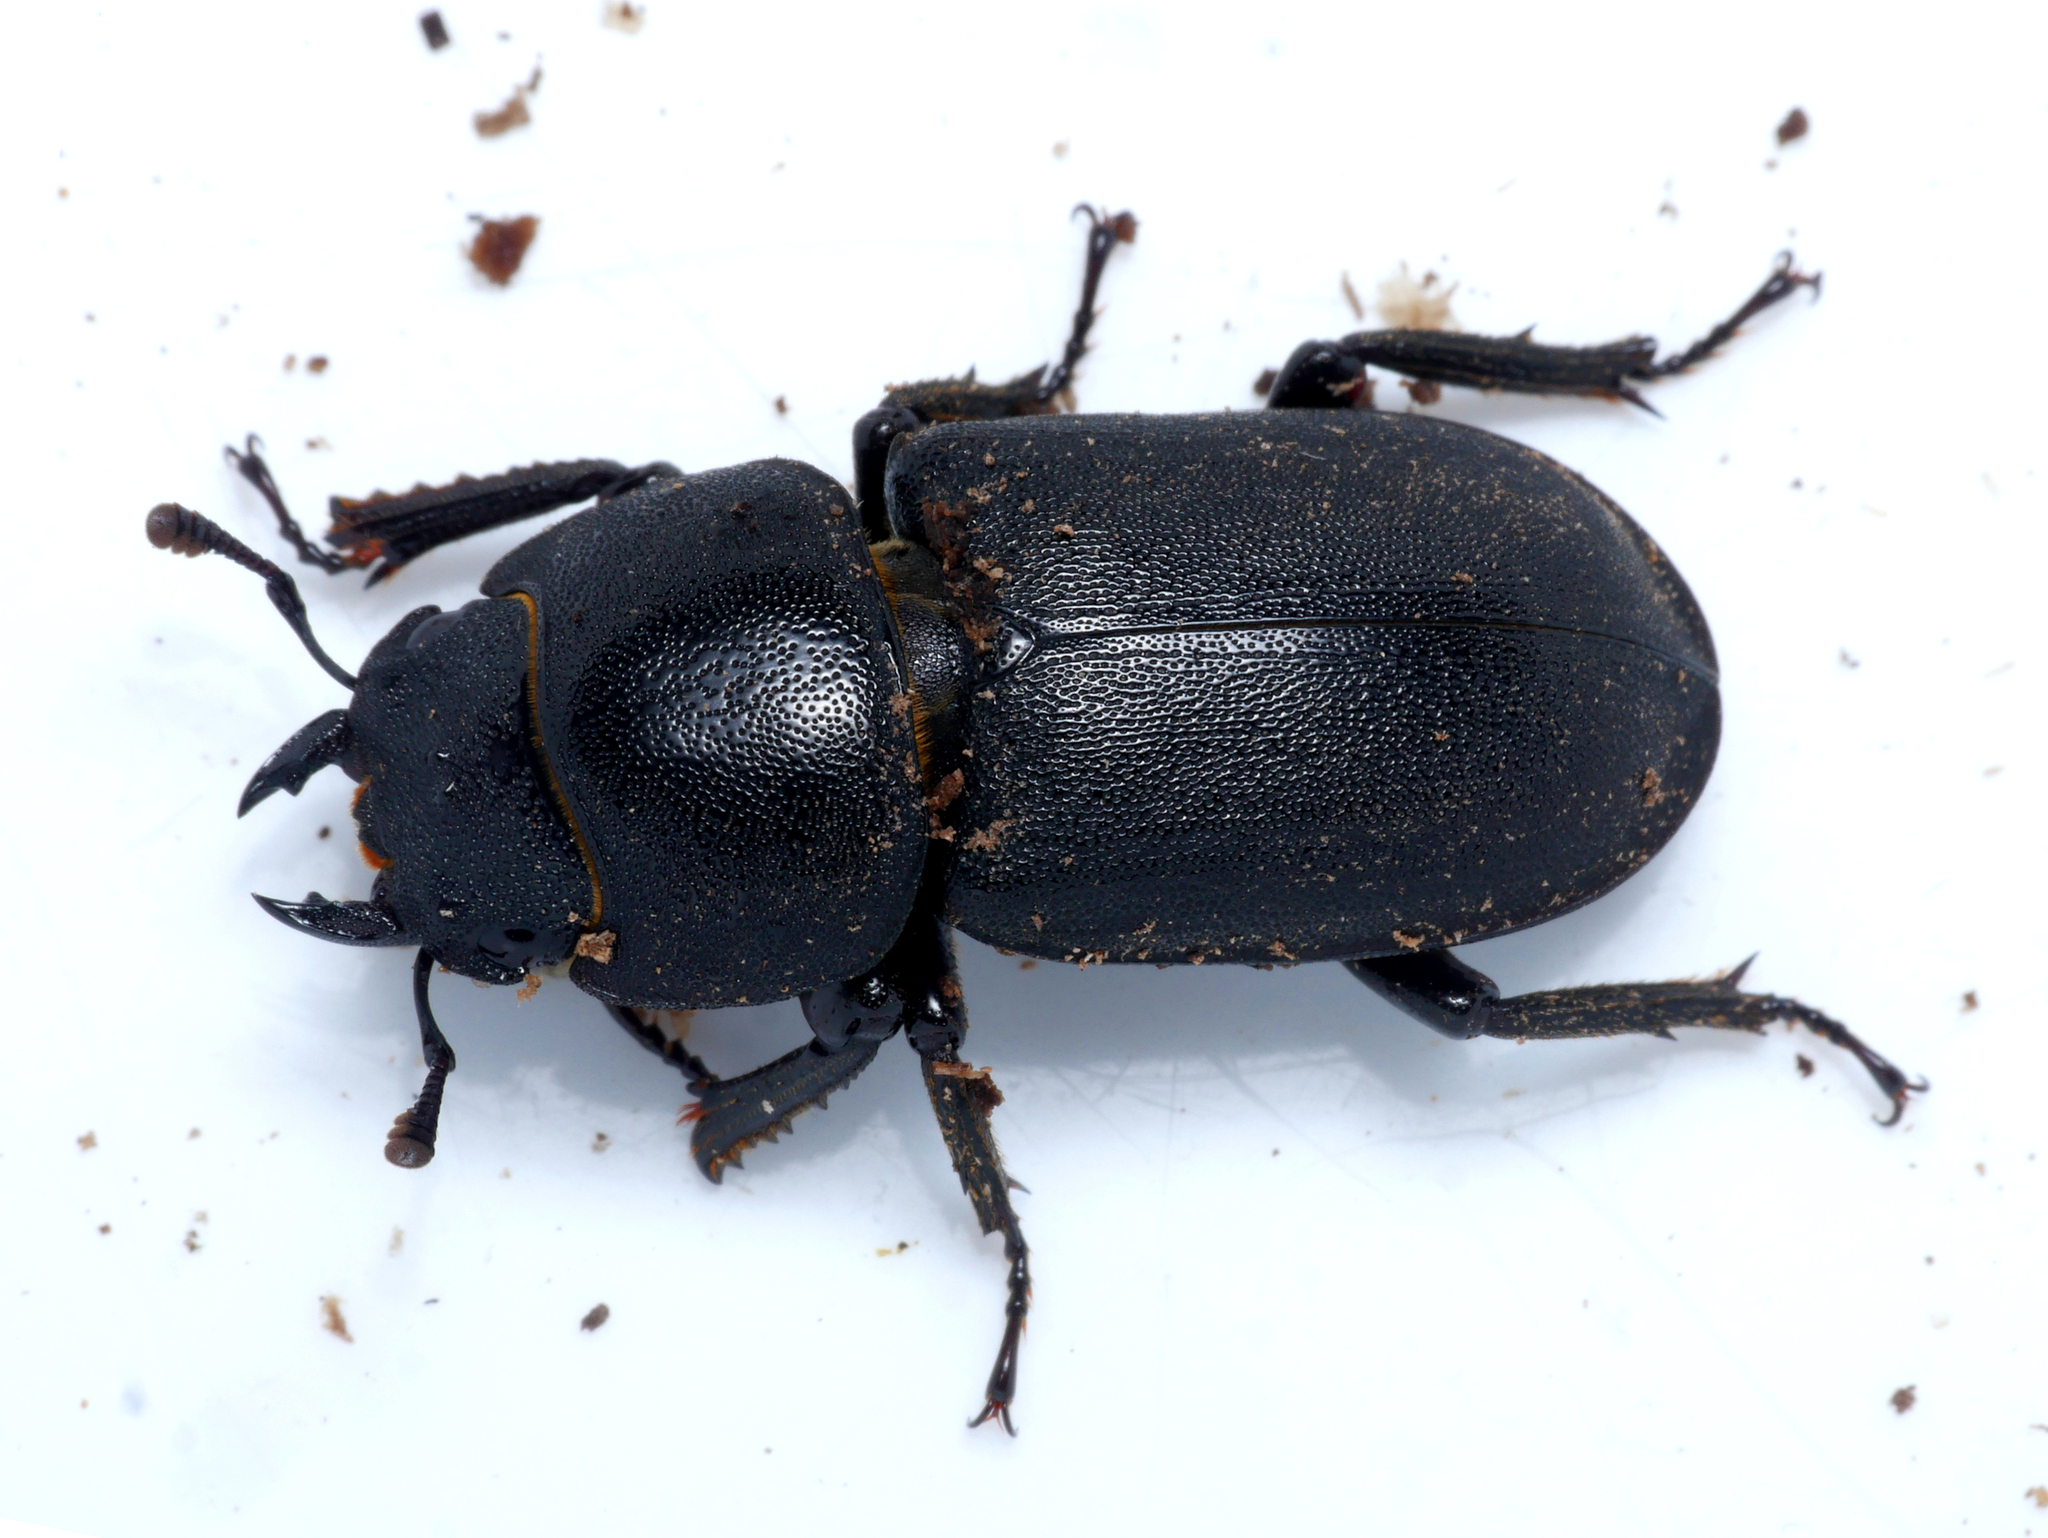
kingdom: Animalia
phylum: Arthropoda
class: Insecta
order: Coleoptera
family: Lucanidae
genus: Dorcus
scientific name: Dorcus parallelipipedus
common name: Lesser stag beetle
